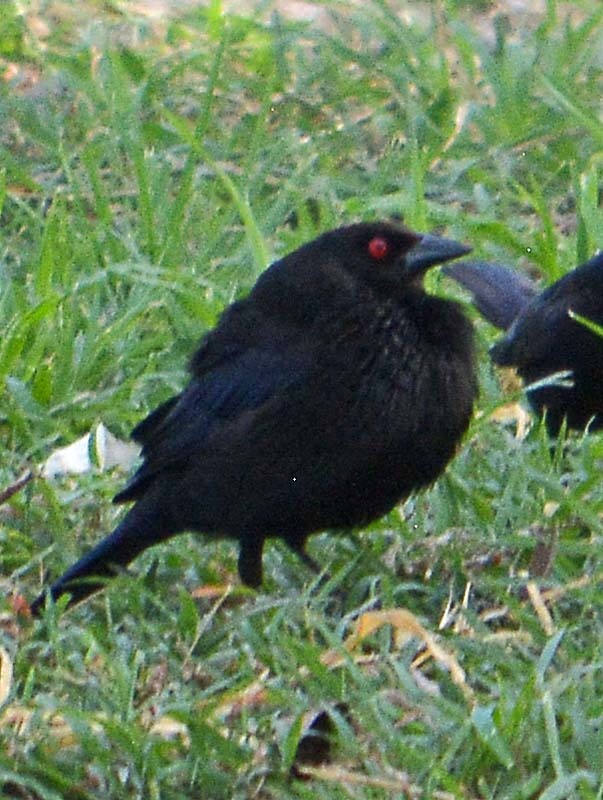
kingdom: Animalia
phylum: Chordata
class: Aves
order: Passeriformes
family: Icteridae
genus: Molothrus
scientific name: Molothrus aeneus
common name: Bronzed cowbird
